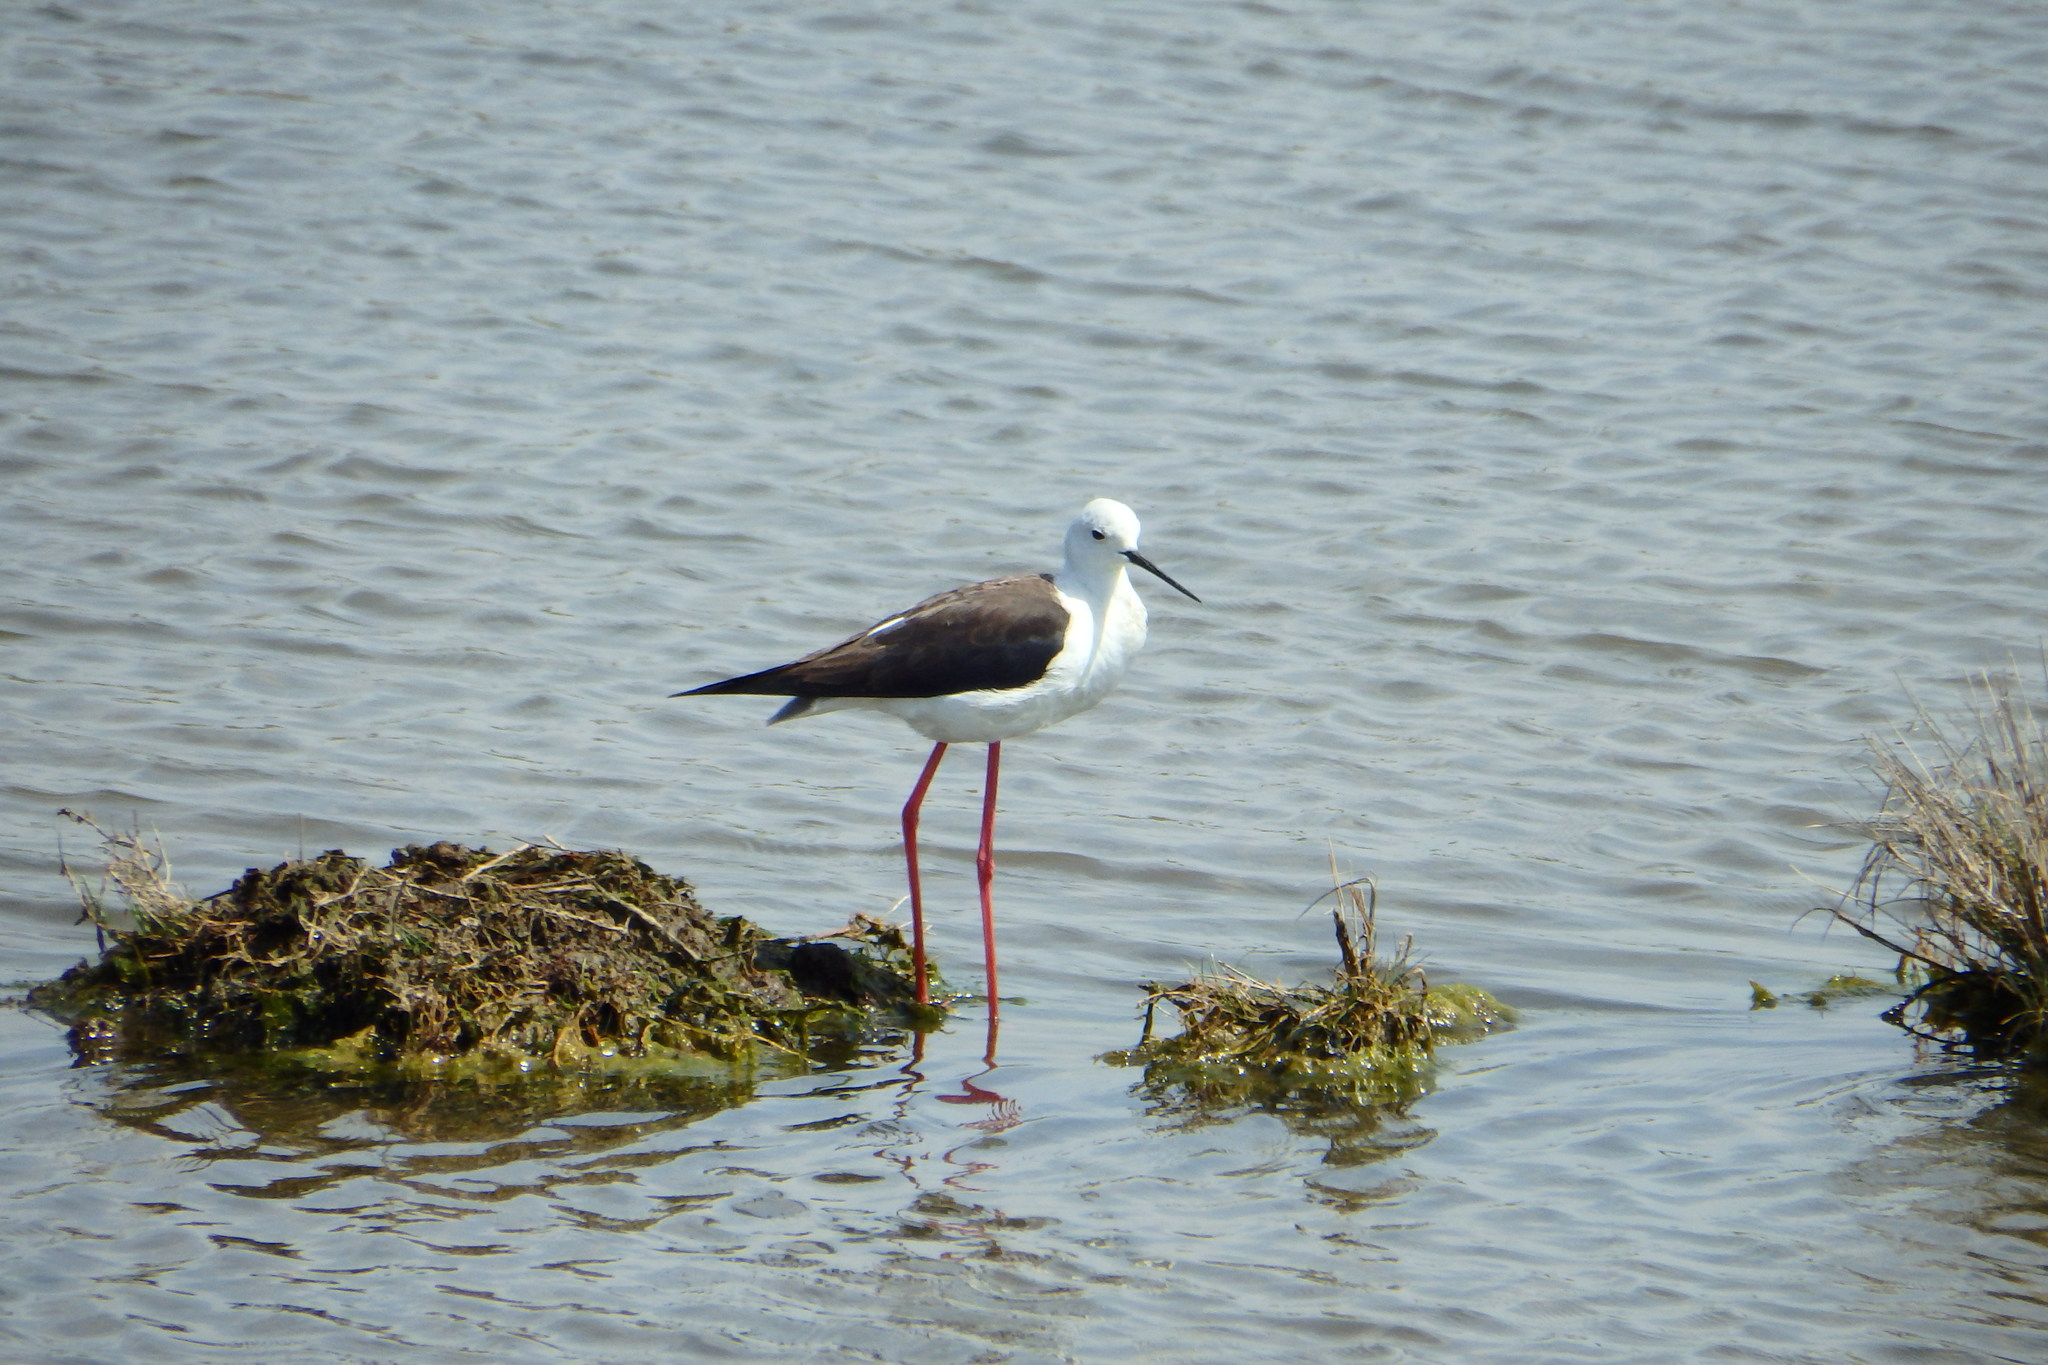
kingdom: Animalia
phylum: Chordata
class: Aves
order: Charadriiformes
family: Recurvirostridae
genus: Himantopus
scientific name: Himantopus himantopus
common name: Black-winged stilt
